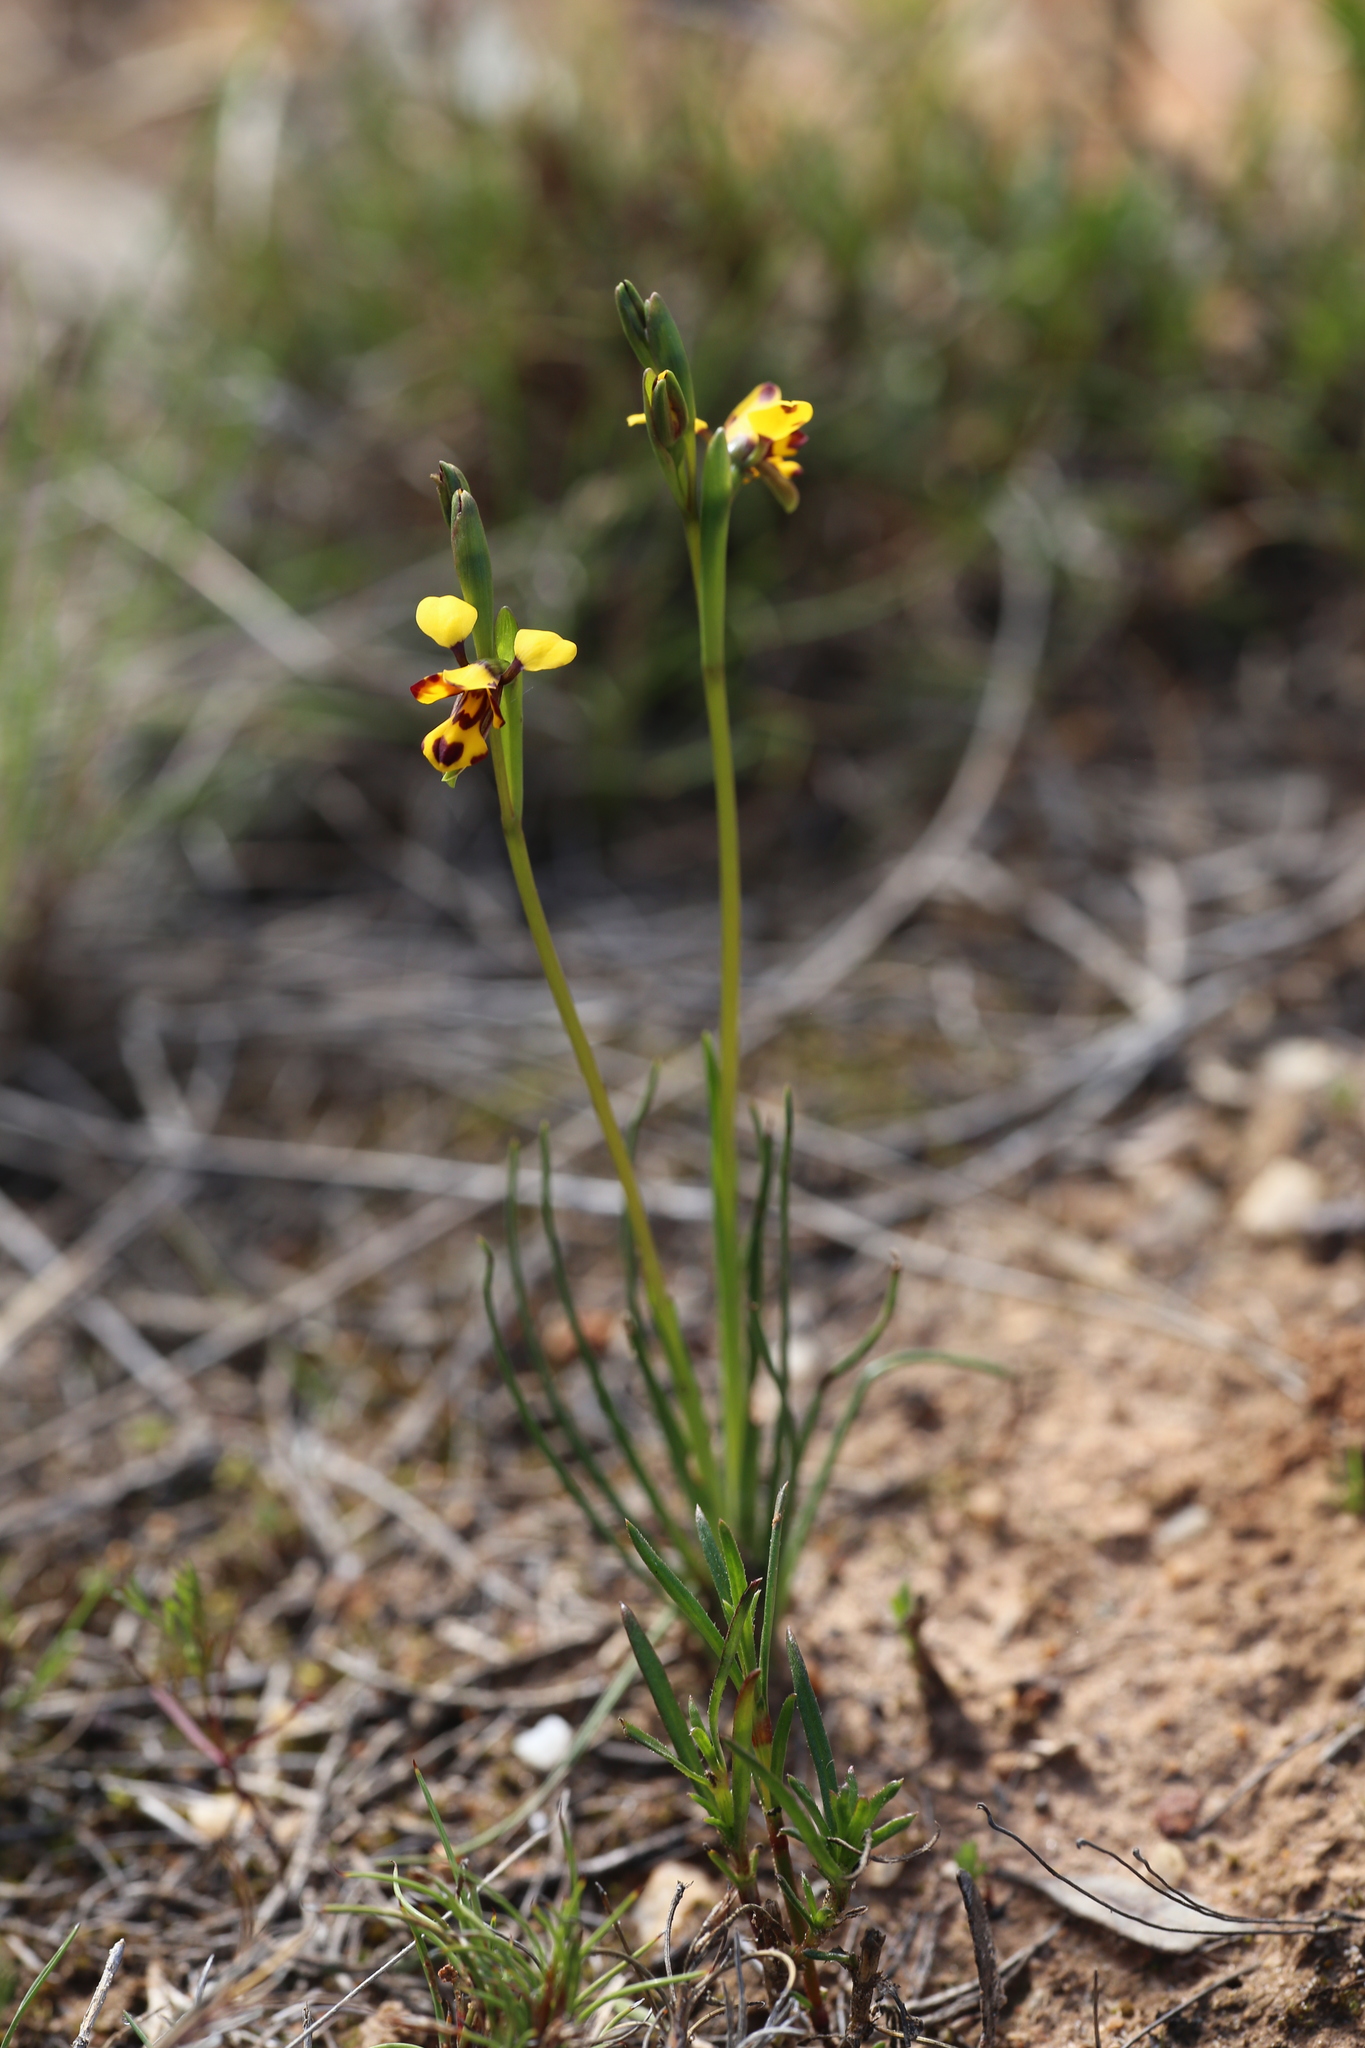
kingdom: Plantae
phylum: Tracheophyta
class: Liliopsida
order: Asparagales
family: Orchidaceae
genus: Diuris
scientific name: Diuris decrementum
